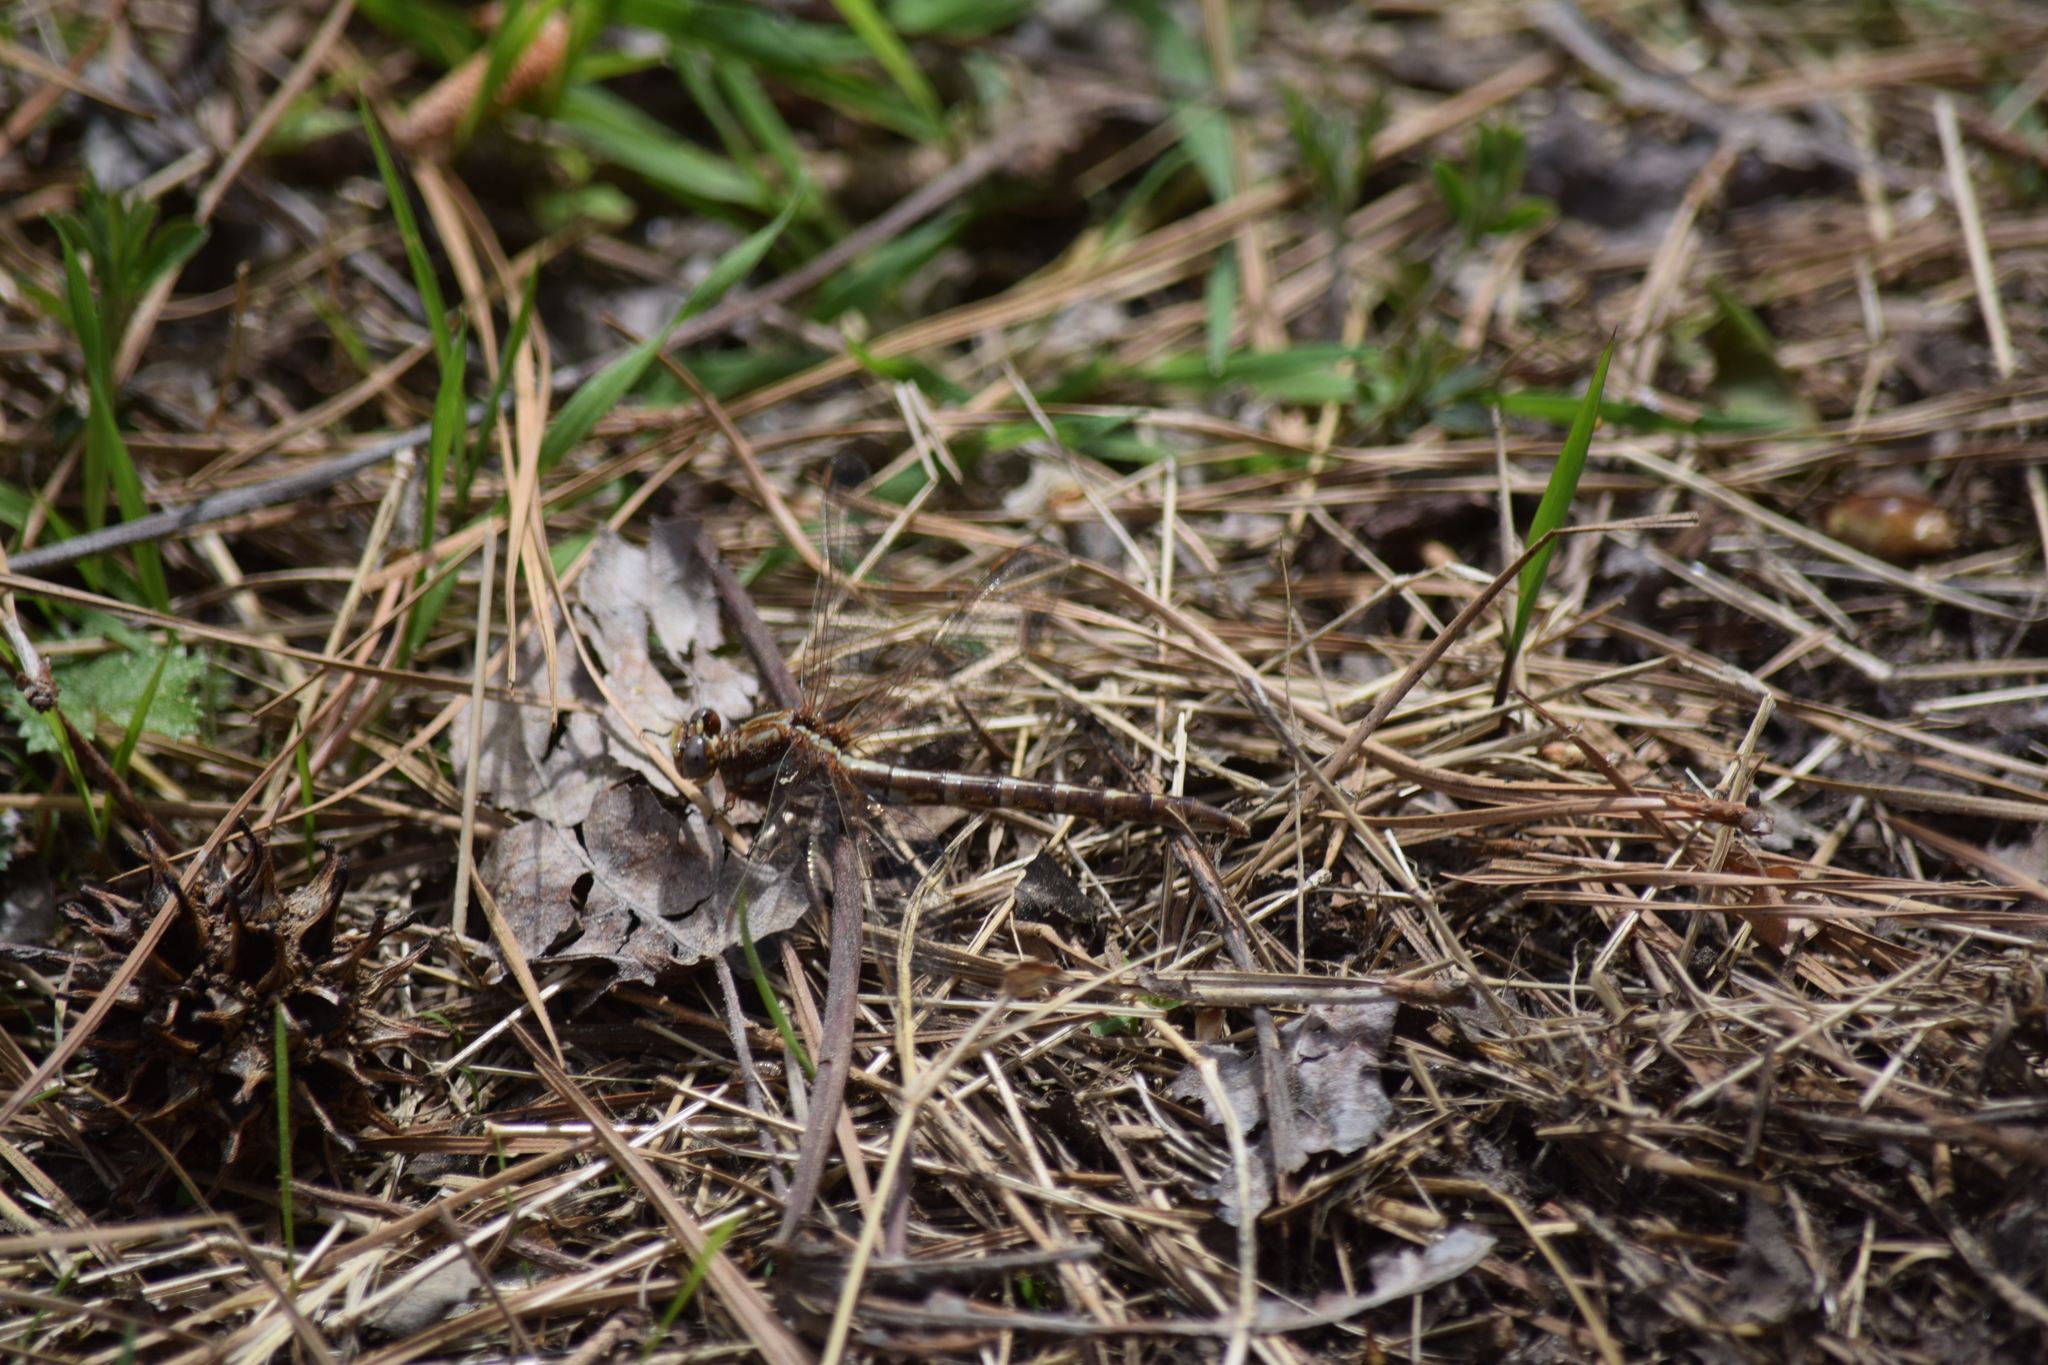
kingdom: Animalia
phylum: Arthropoda
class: Insecta
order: Odonata
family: Gomphidae
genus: Phanogomphus
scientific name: Phanogomphus lividus
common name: Ashy clubtail
